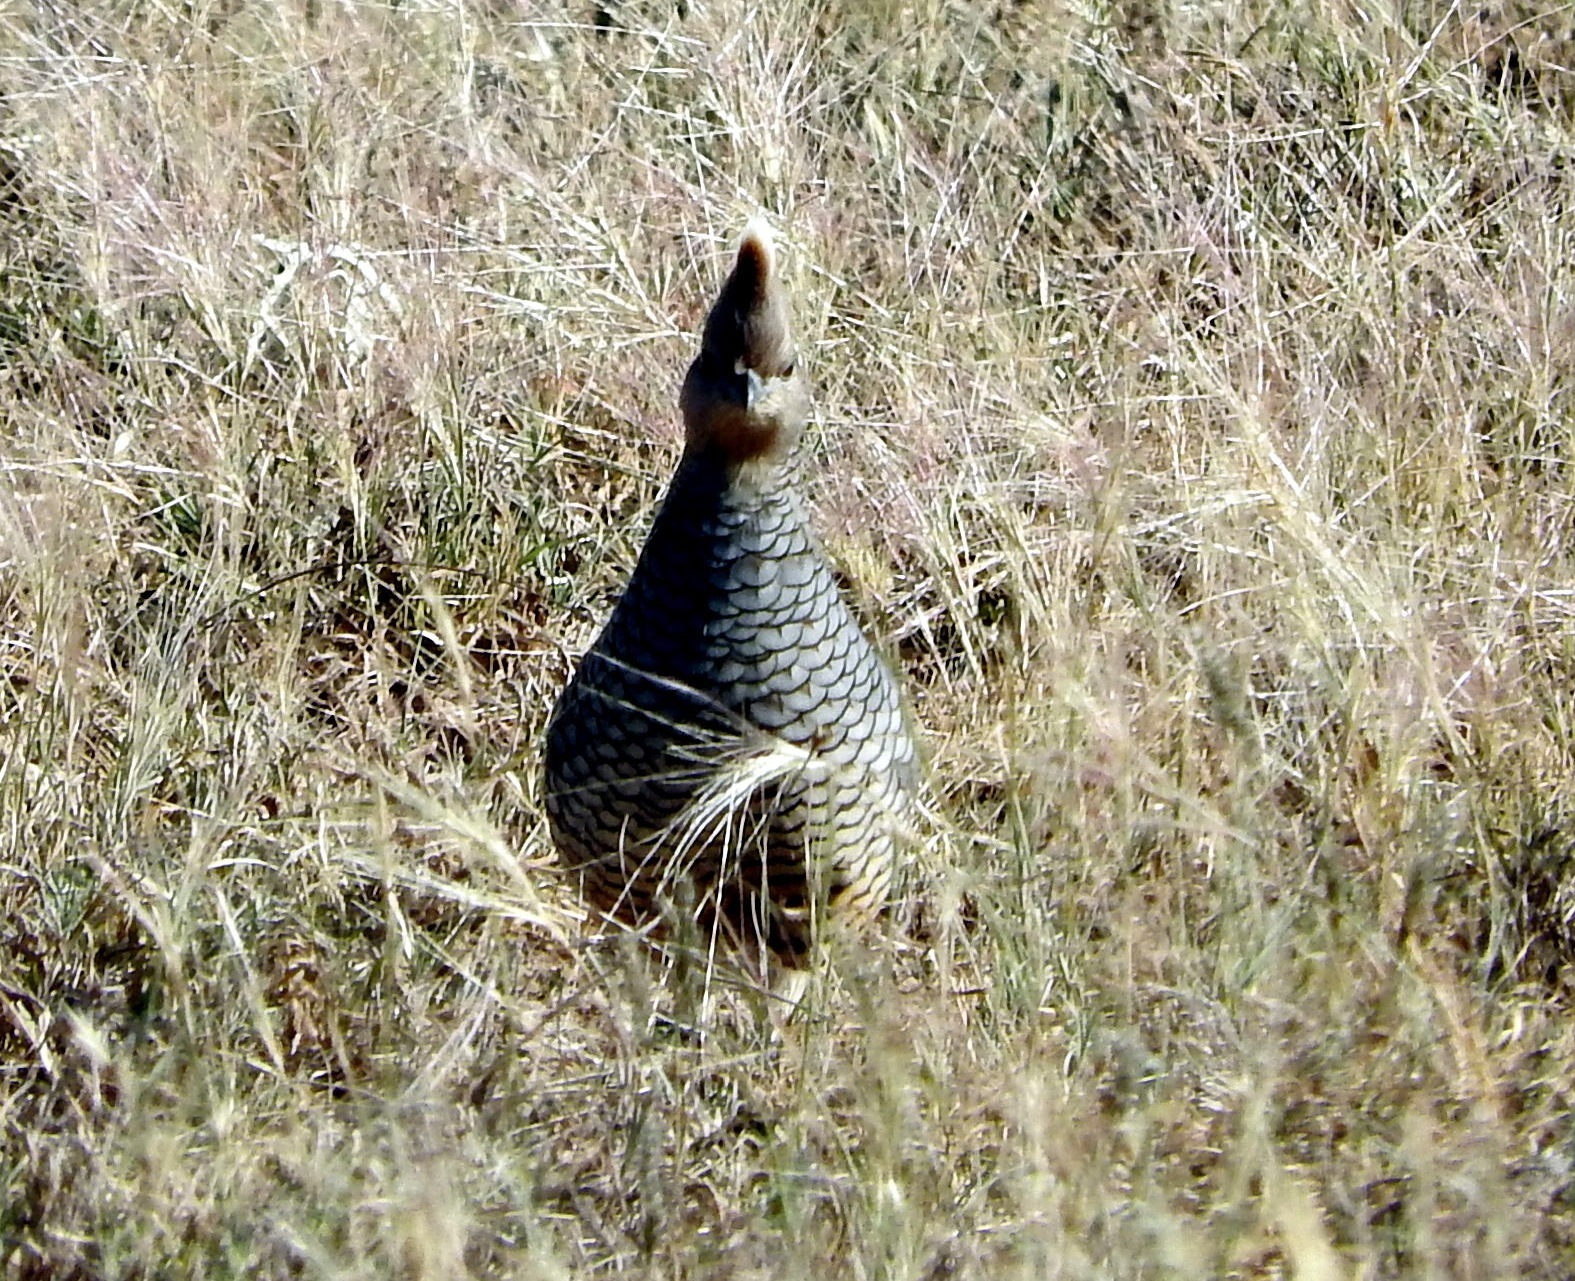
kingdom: Animalia
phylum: Chordata
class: Aves
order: Galliformes
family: Odontophoridae
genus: Callipepla
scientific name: Callipepla squamata
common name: Scaled quail
